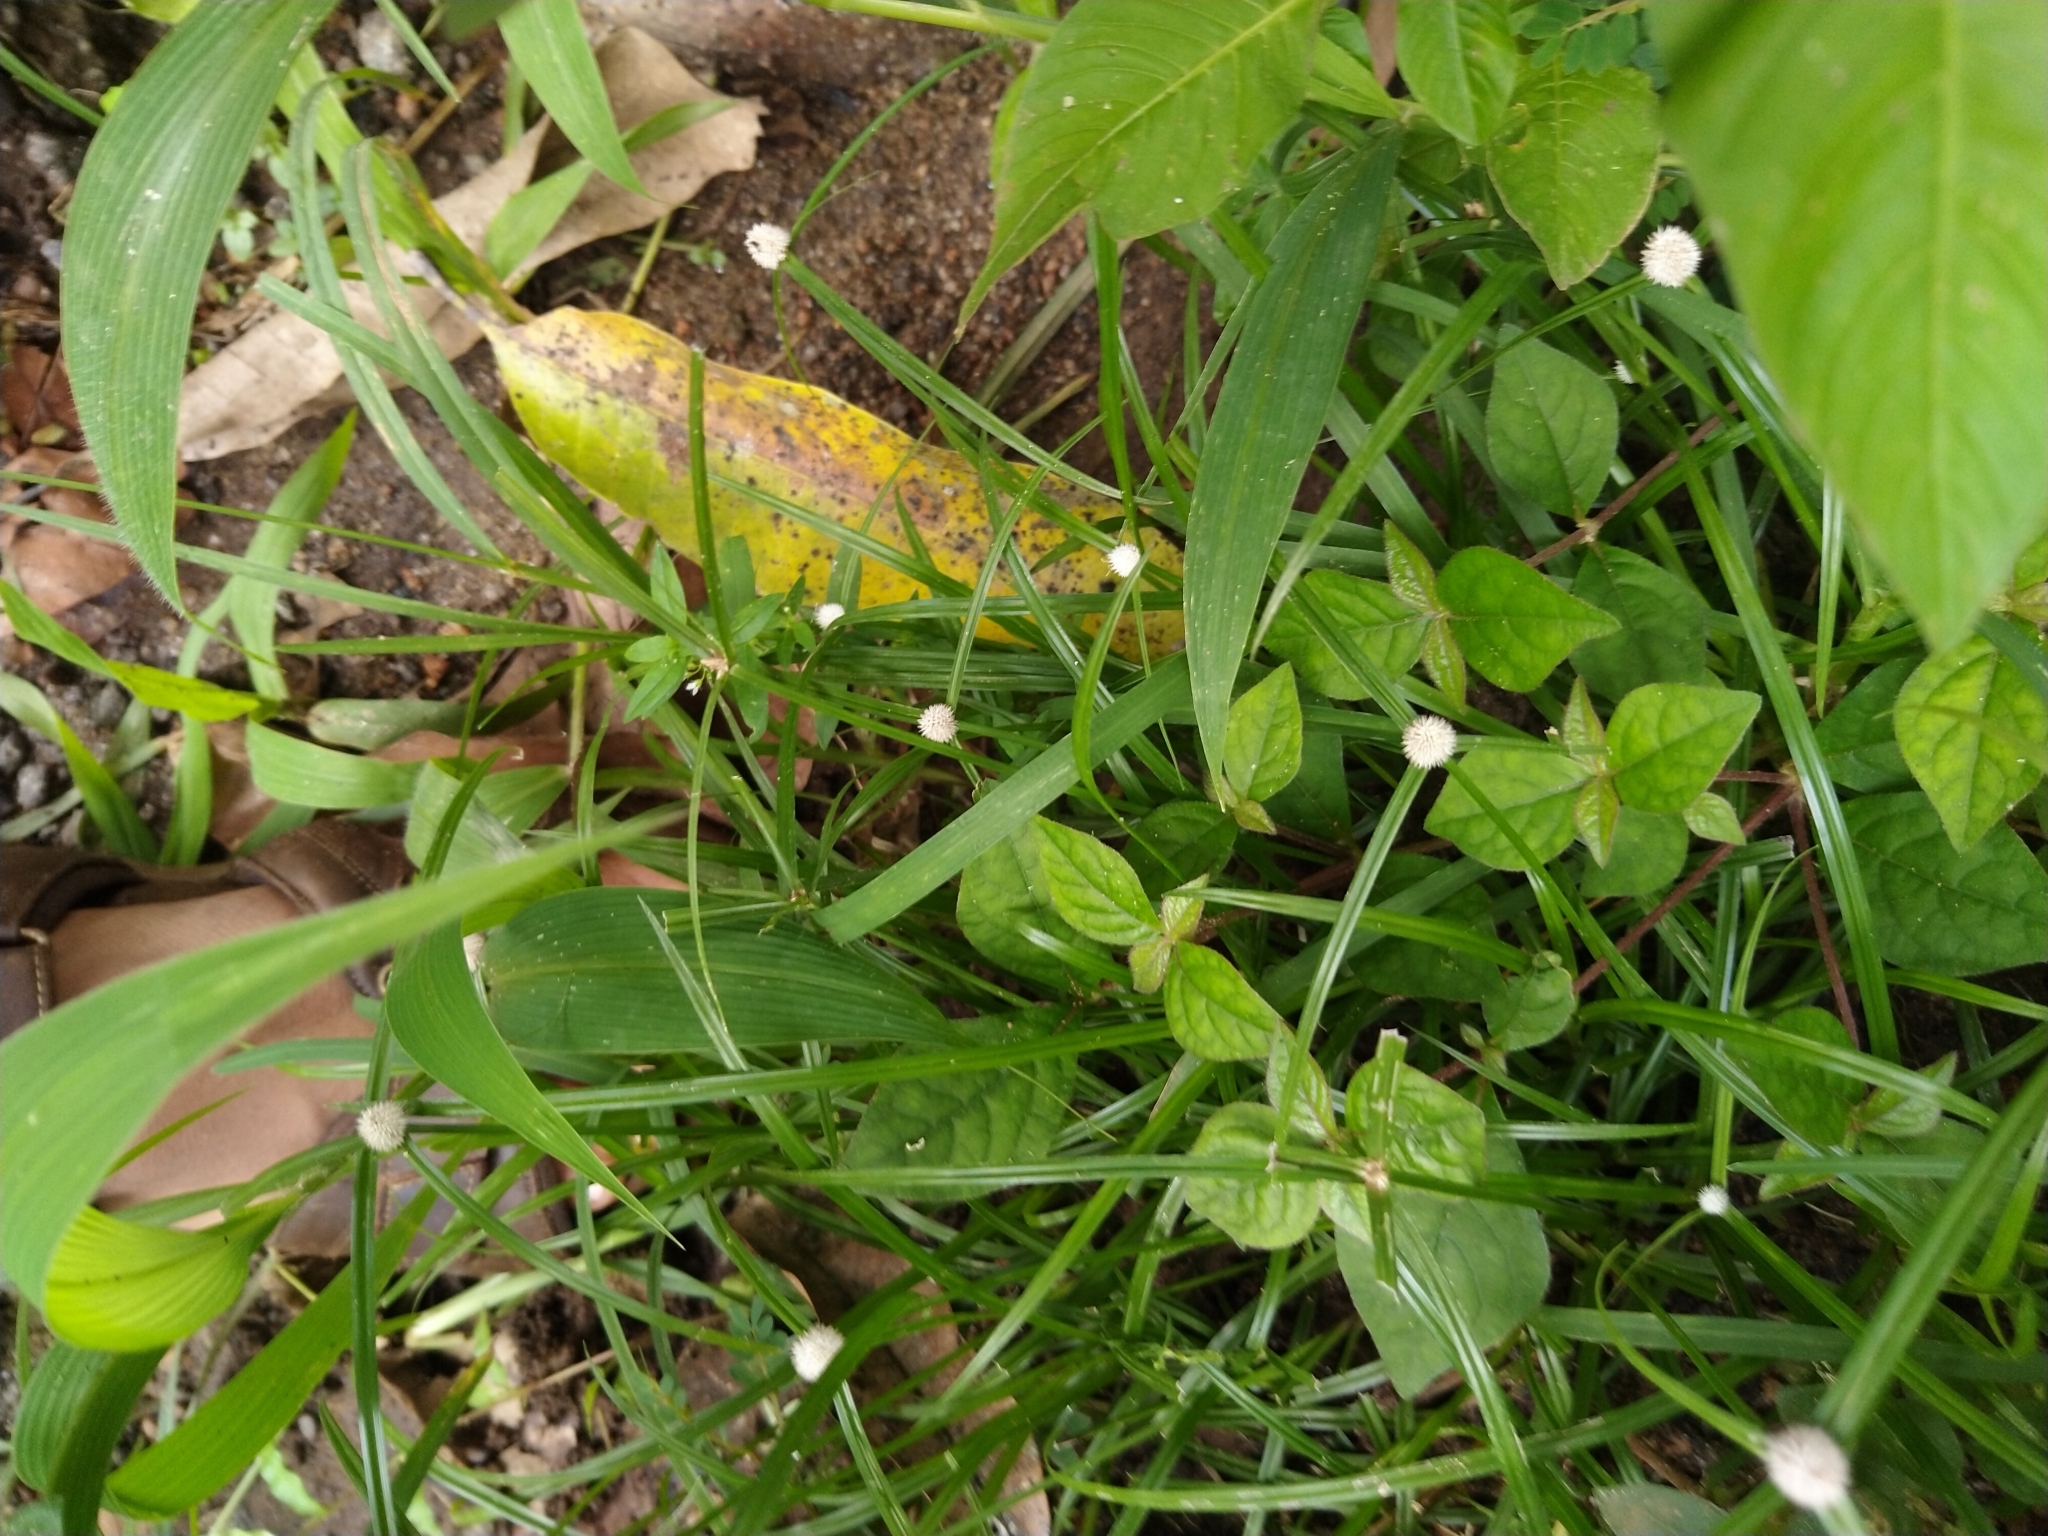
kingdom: Plantae
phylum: Tracheophyta
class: Liliopsida
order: Poales
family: Cyperaceae
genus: Cyperus
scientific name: Cyperus mindorensis
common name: Flatsedge
